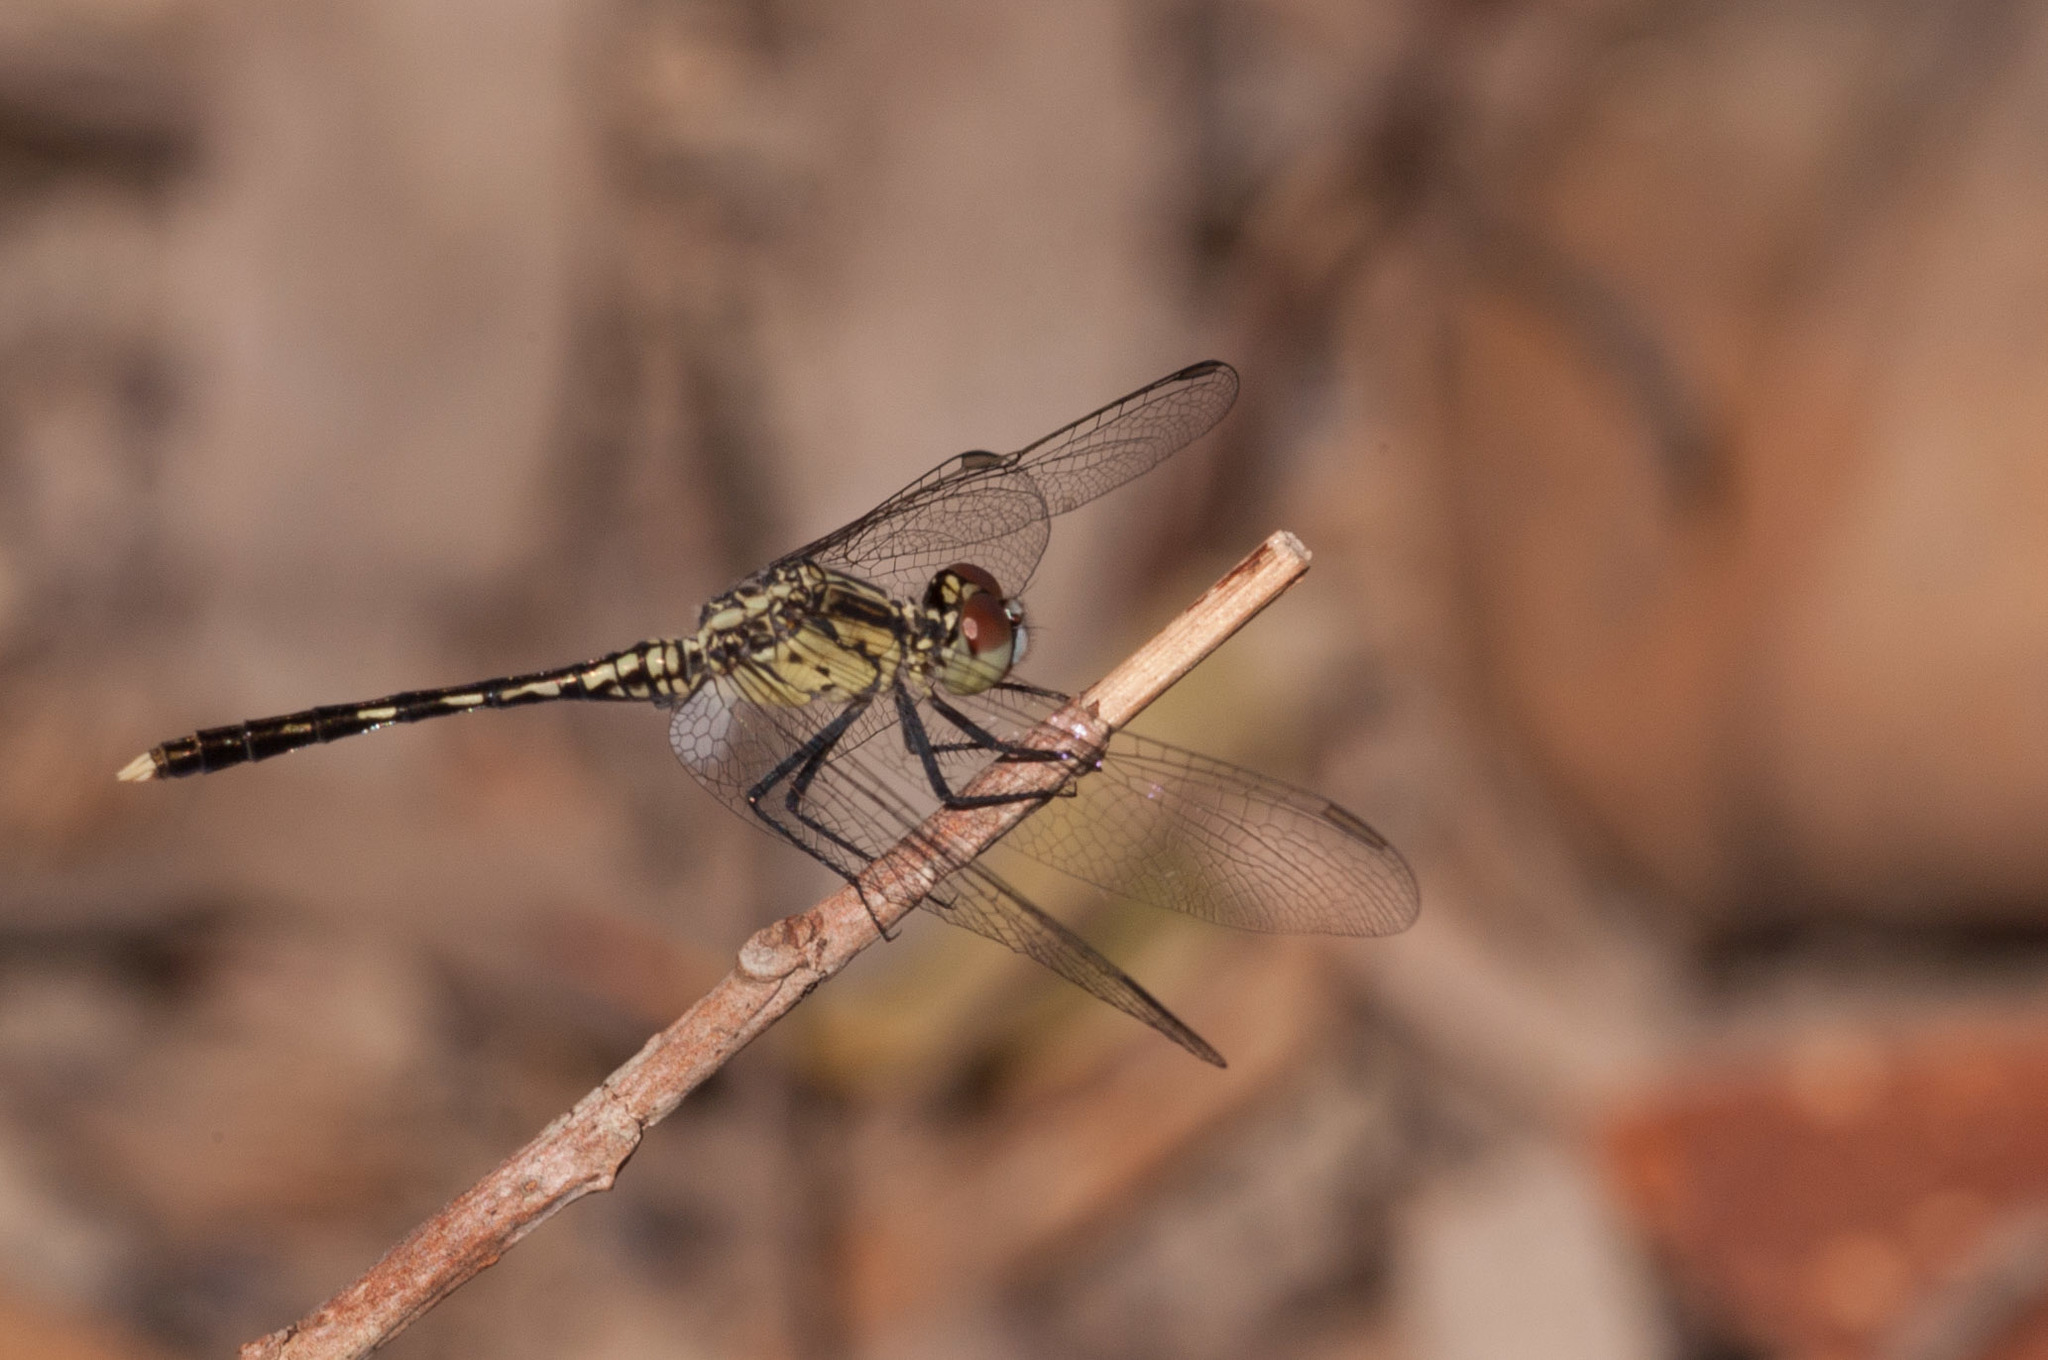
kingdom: Animalia
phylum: Arthropoda
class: Insecta
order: Odonata
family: Libellulidae
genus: Diplacodes
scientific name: Diplacodes trivialis
